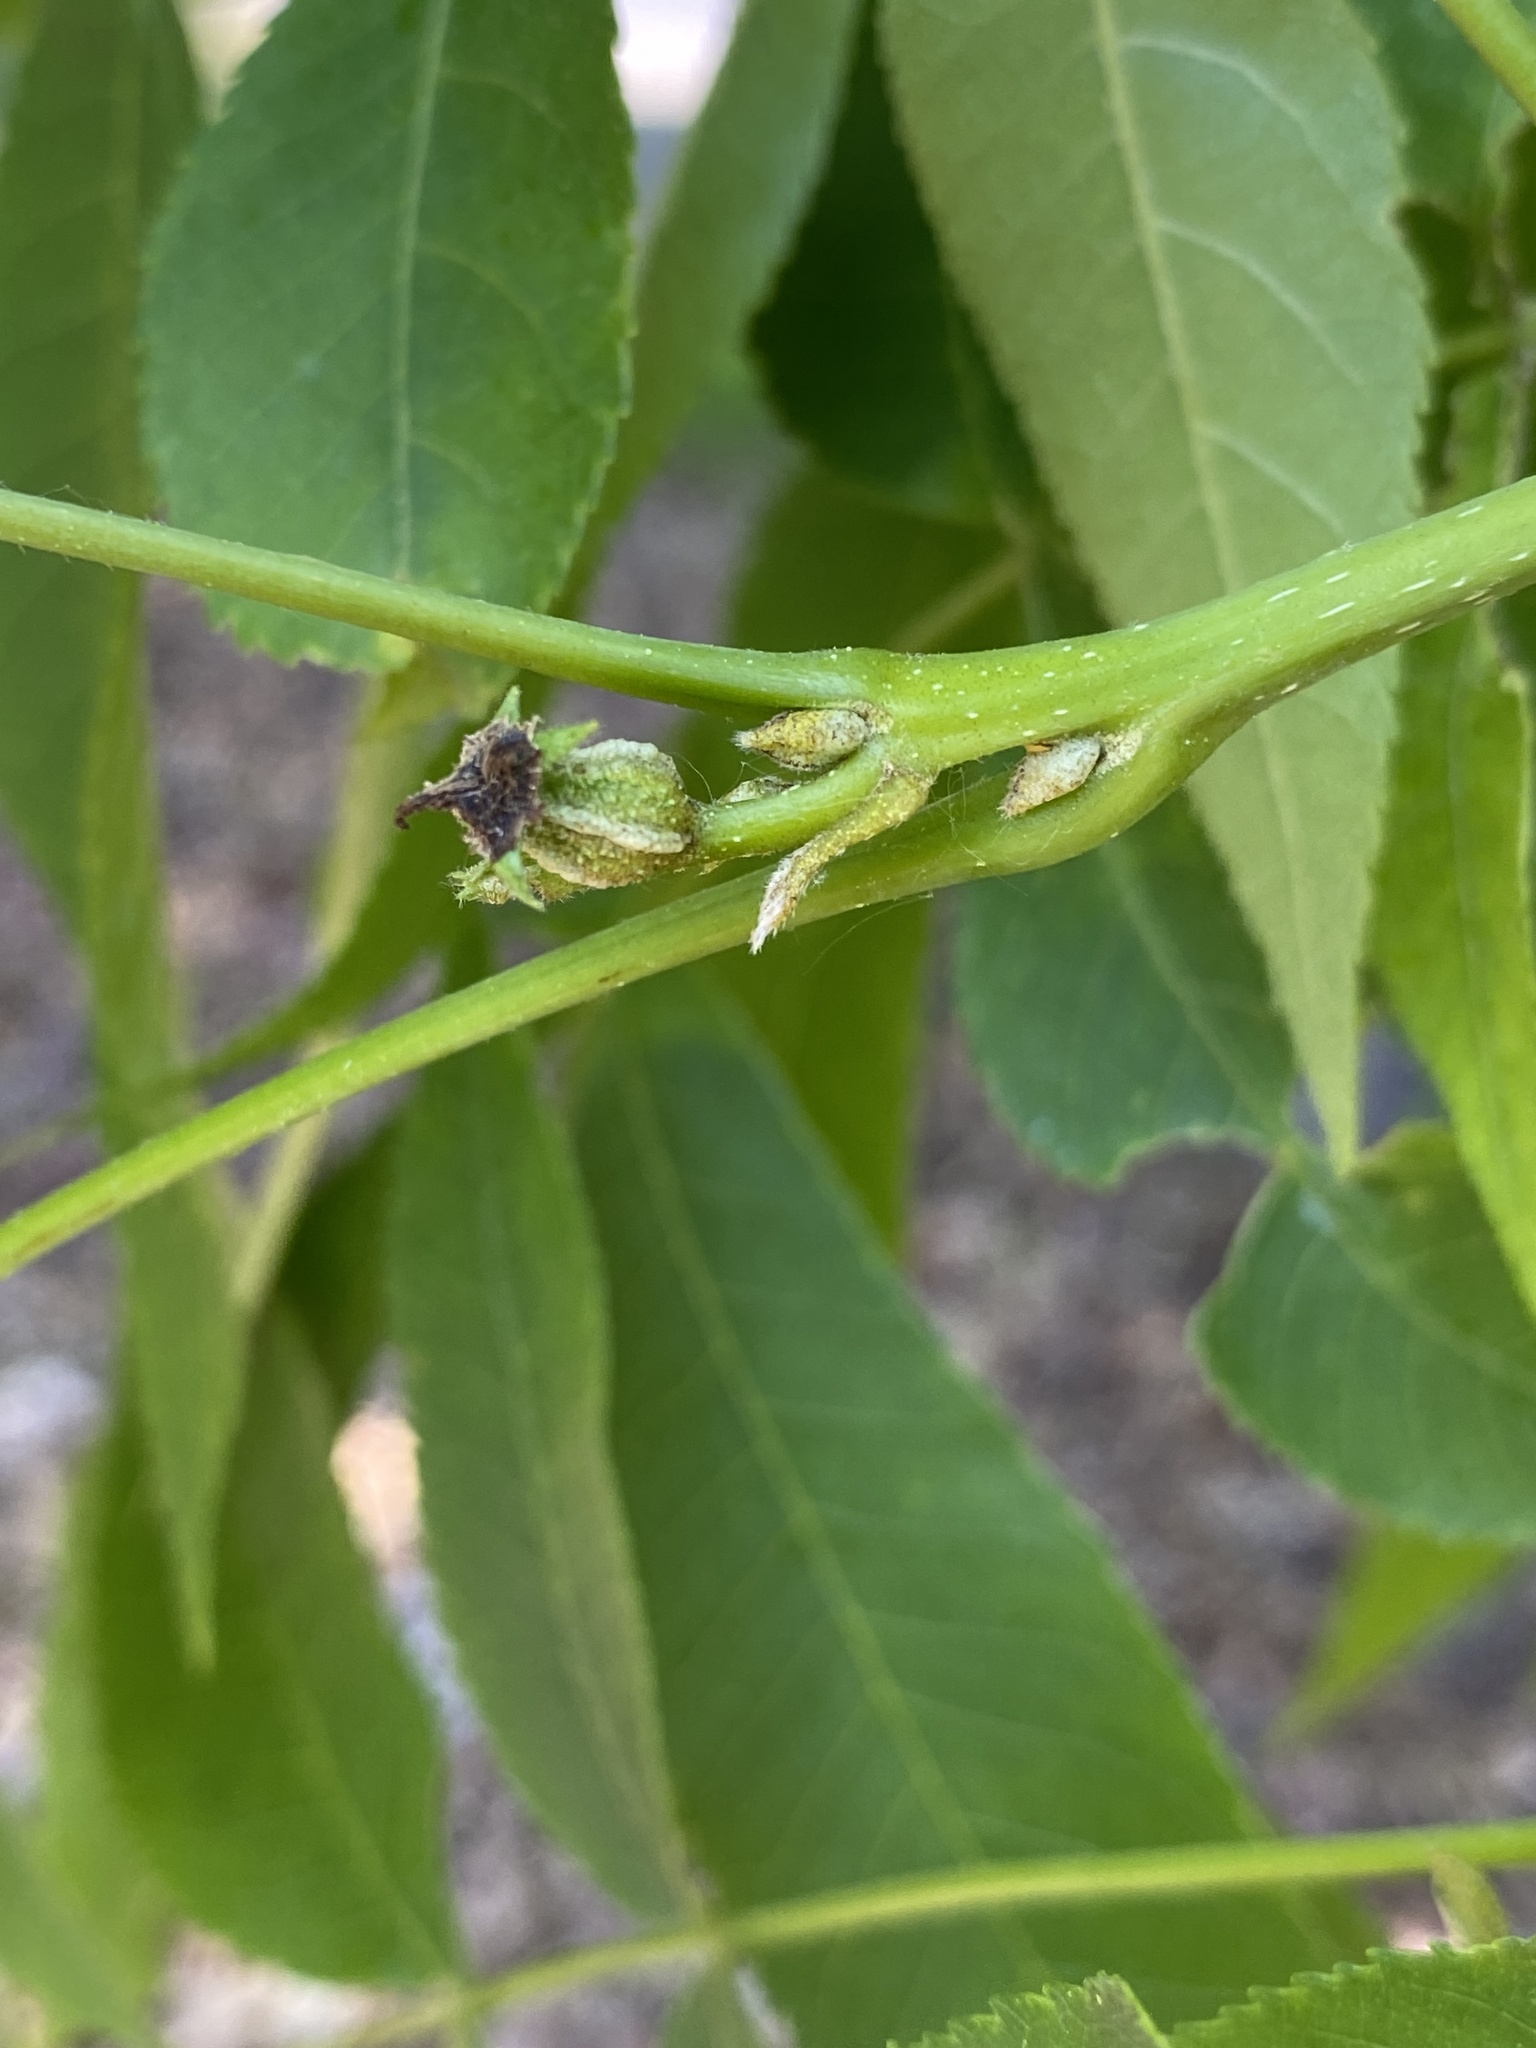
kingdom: Plantae
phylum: Tracheophyta
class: Magnoliopsida
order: Fagales
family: Juglandaceae
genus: Carya
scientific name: Carya cordiformis
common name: Bitternut hickory
